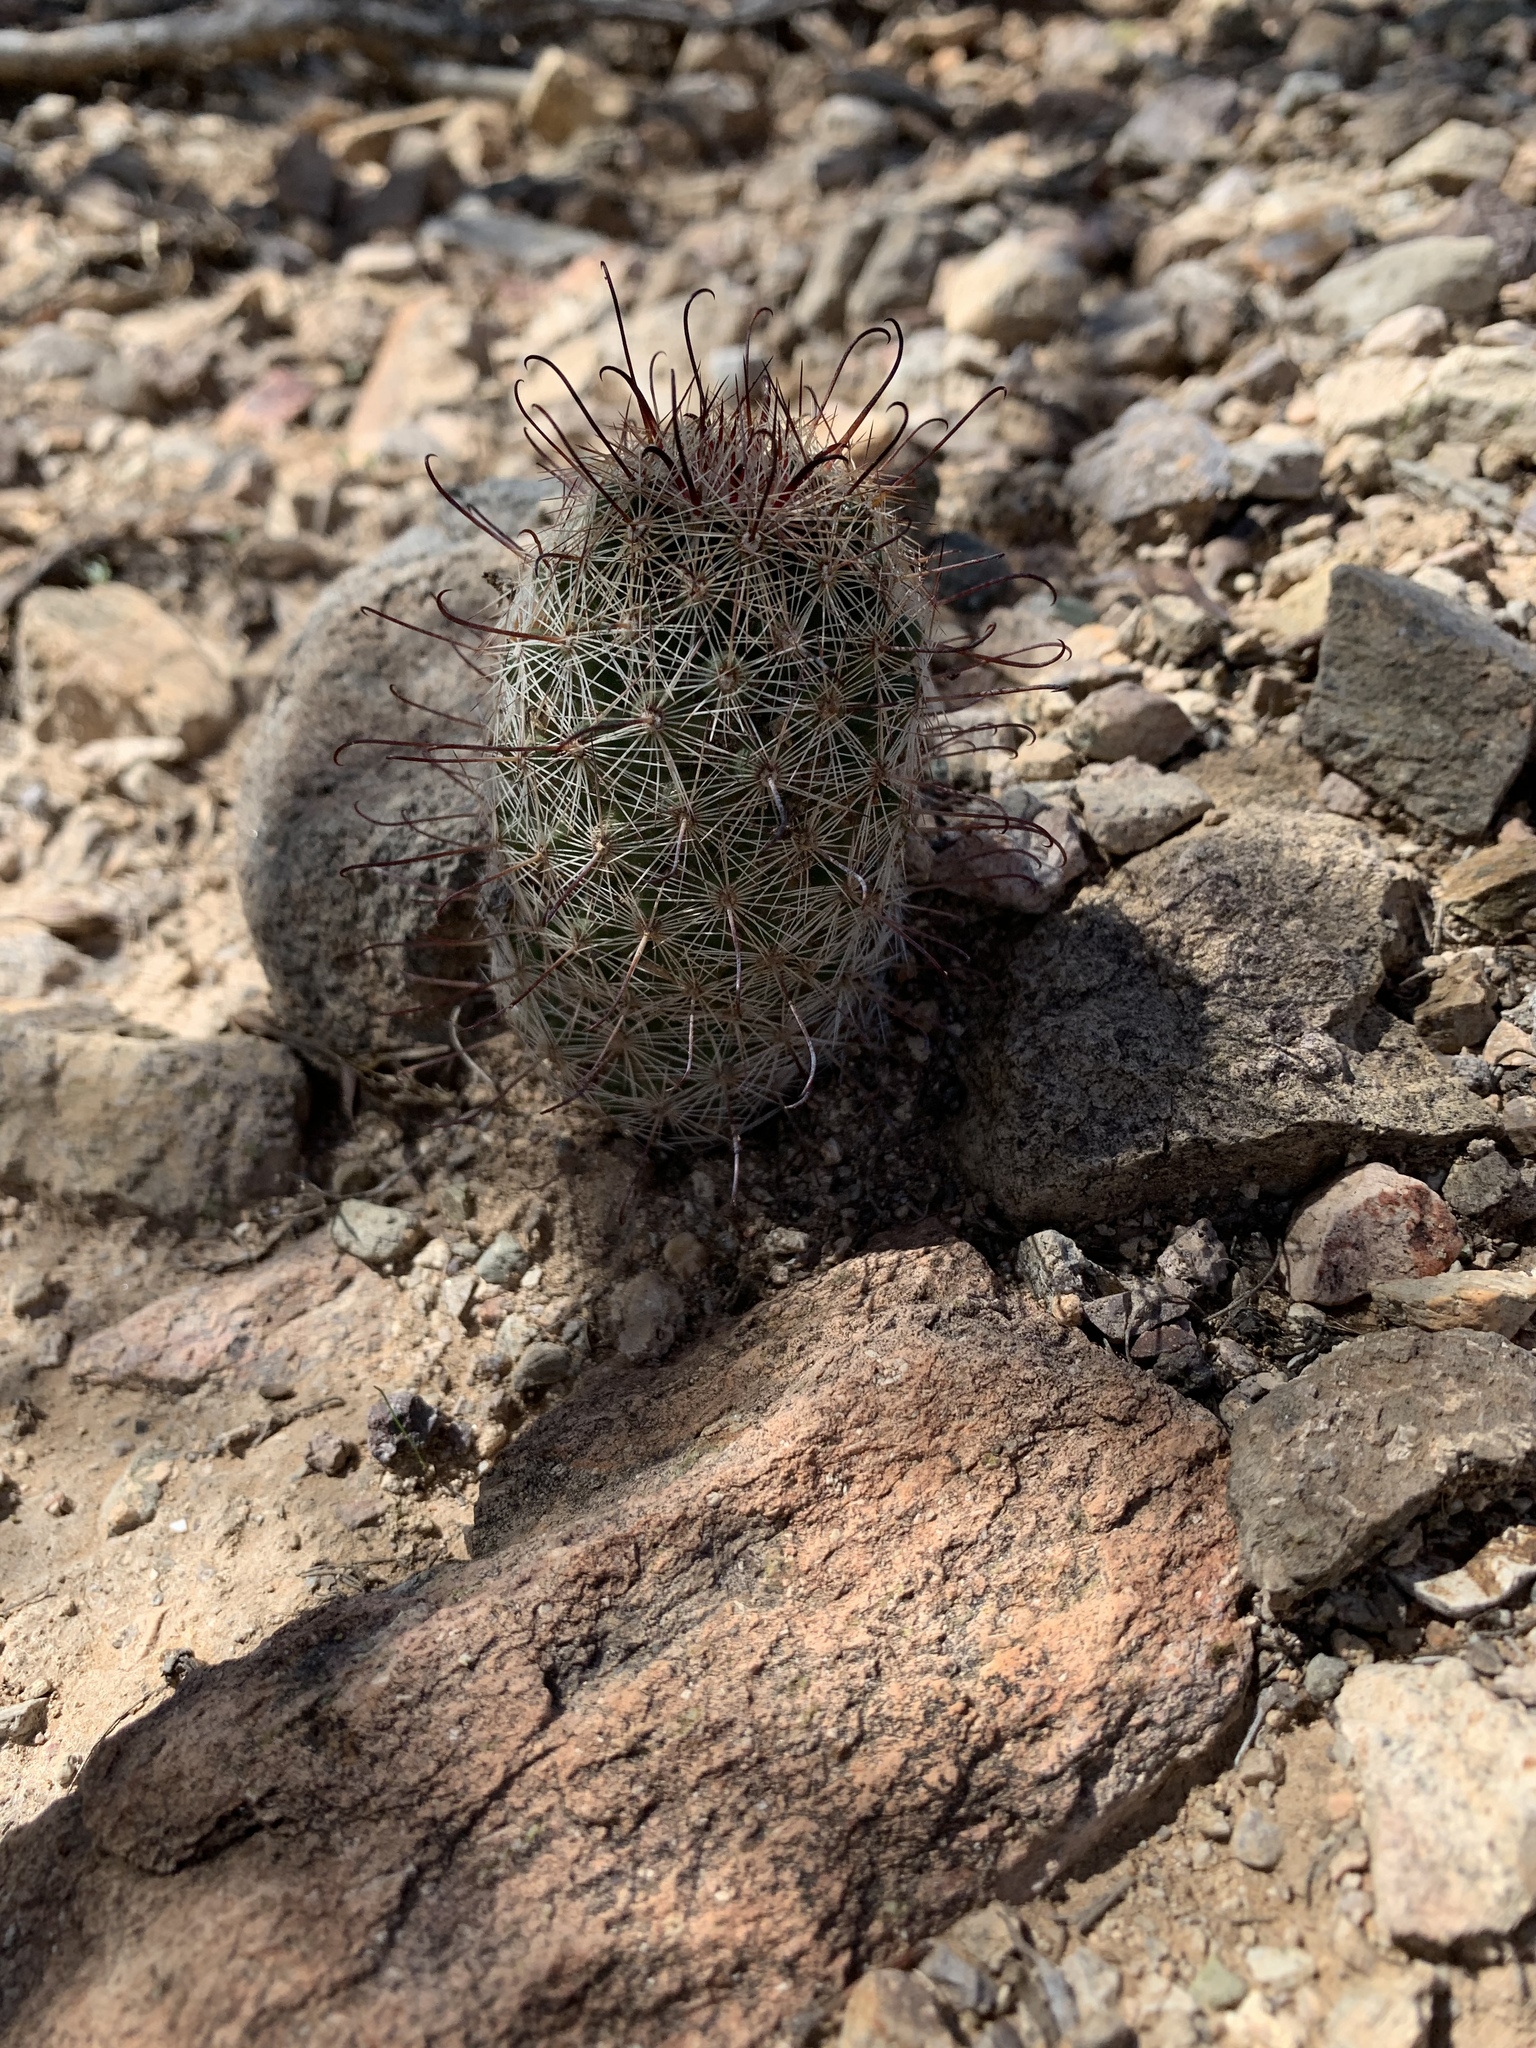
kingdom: Plantae
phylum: Tracheophyta
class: Magnoliopsida
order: Caryophyllales
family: Cactaceae
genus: Cochemiea
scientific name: Cochemiea grahamii
